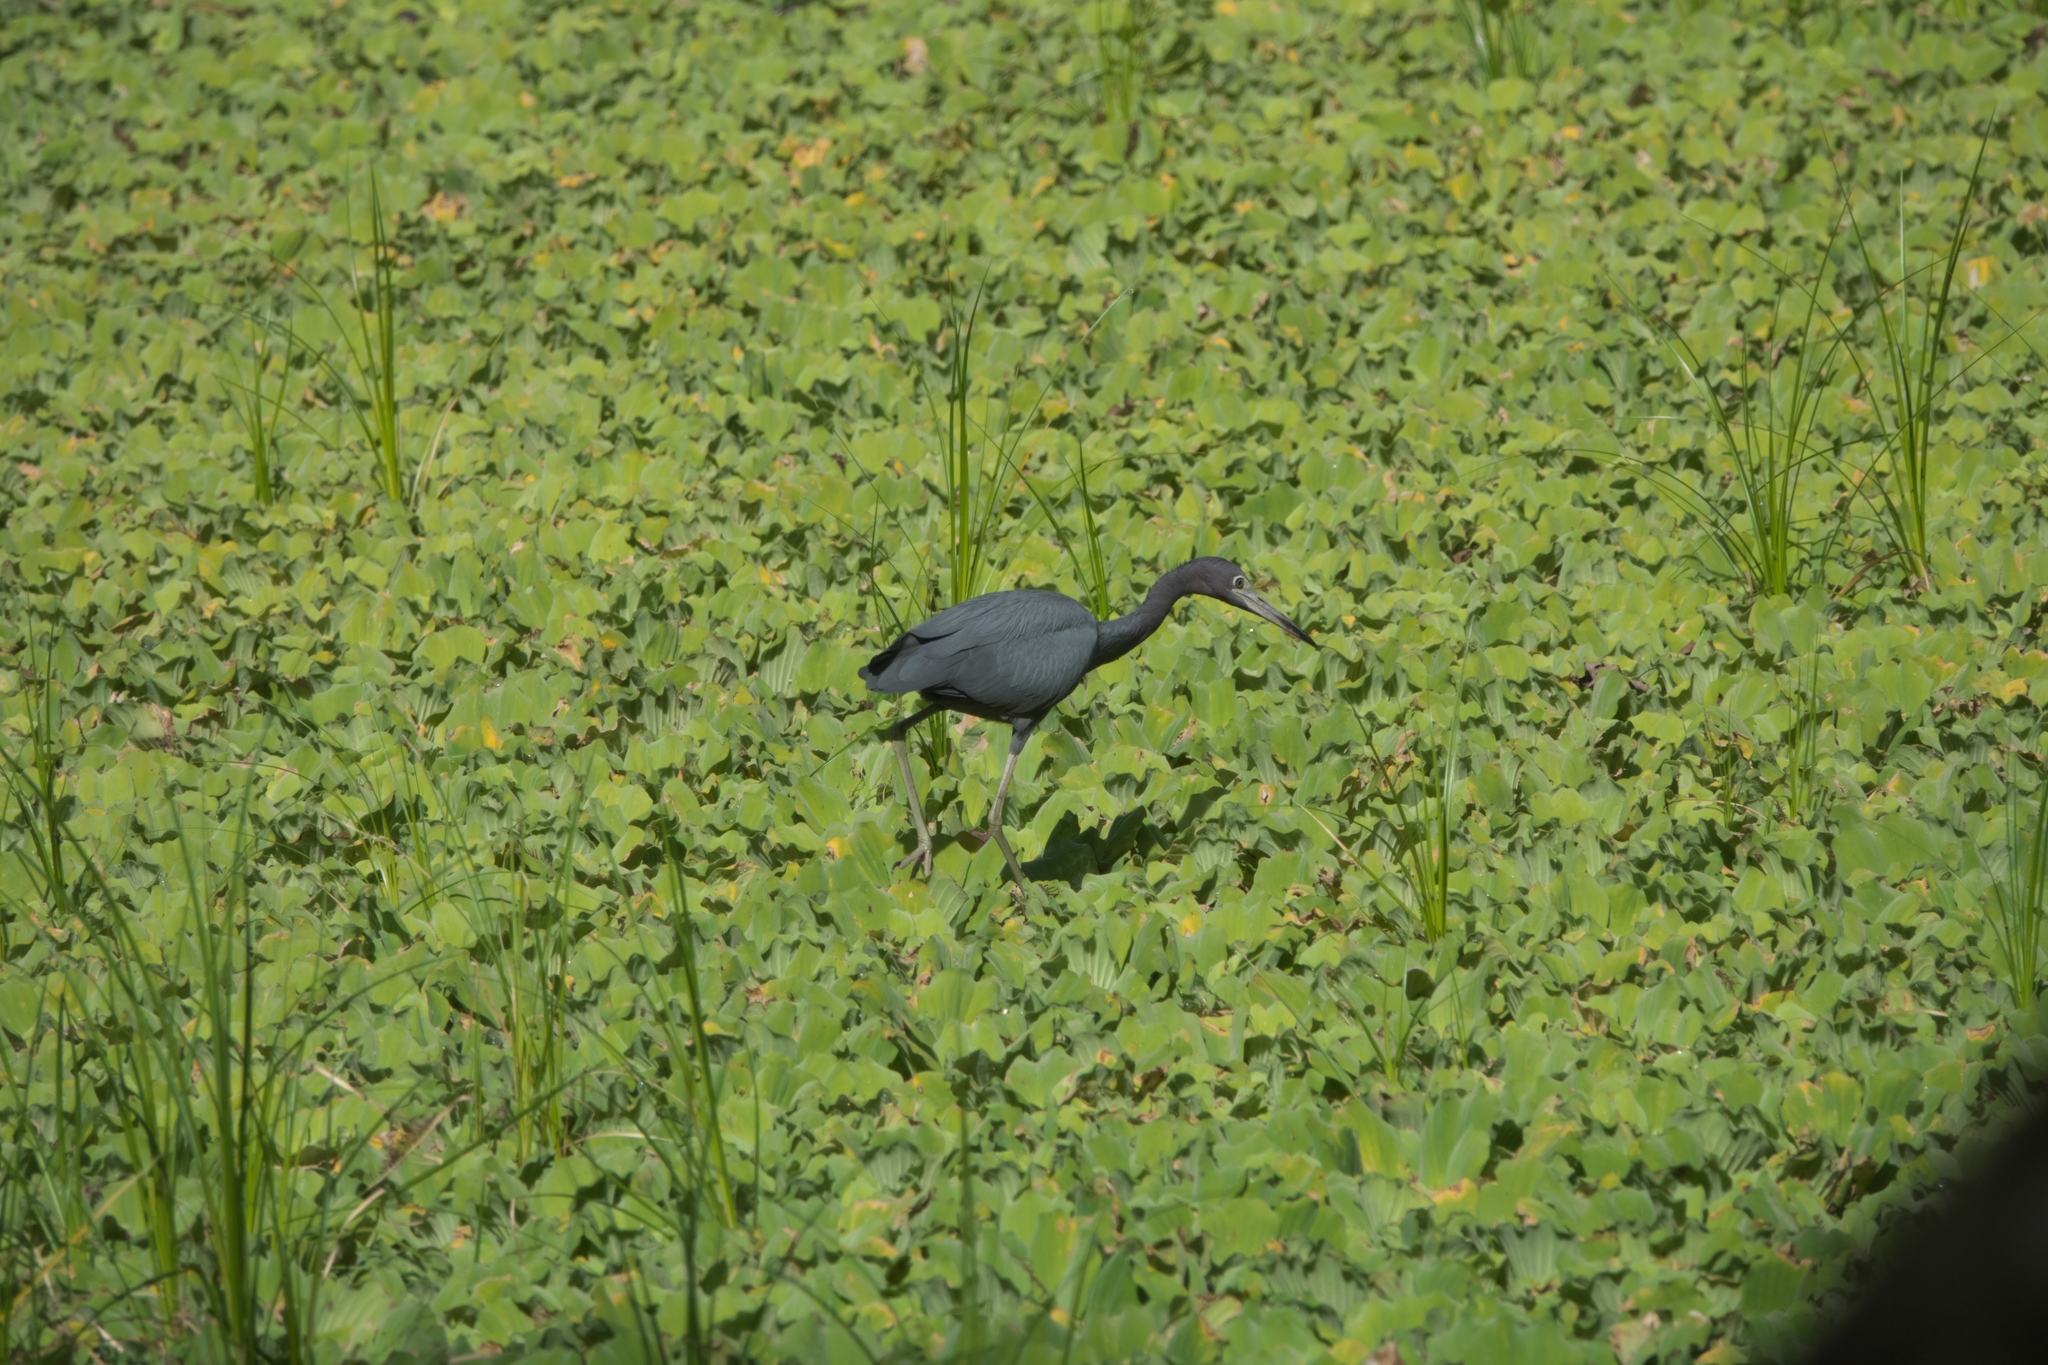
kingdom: Animalia
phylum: Chordata
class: Aves
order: Pelecaniformes
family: Ardeidae
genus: Egretta
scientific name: Egretta caerulea
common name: Little blue heron
